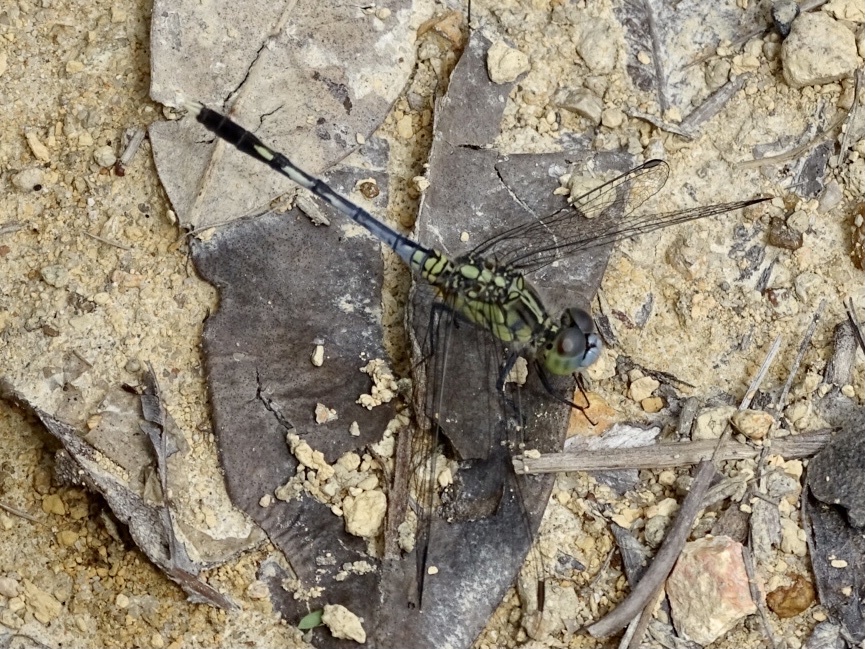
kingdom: Animalia
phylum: Arthropoda
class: Insecta
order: Odonata
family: Libellulidae
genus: Diplacodes
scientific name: Diplacodes trivialis
